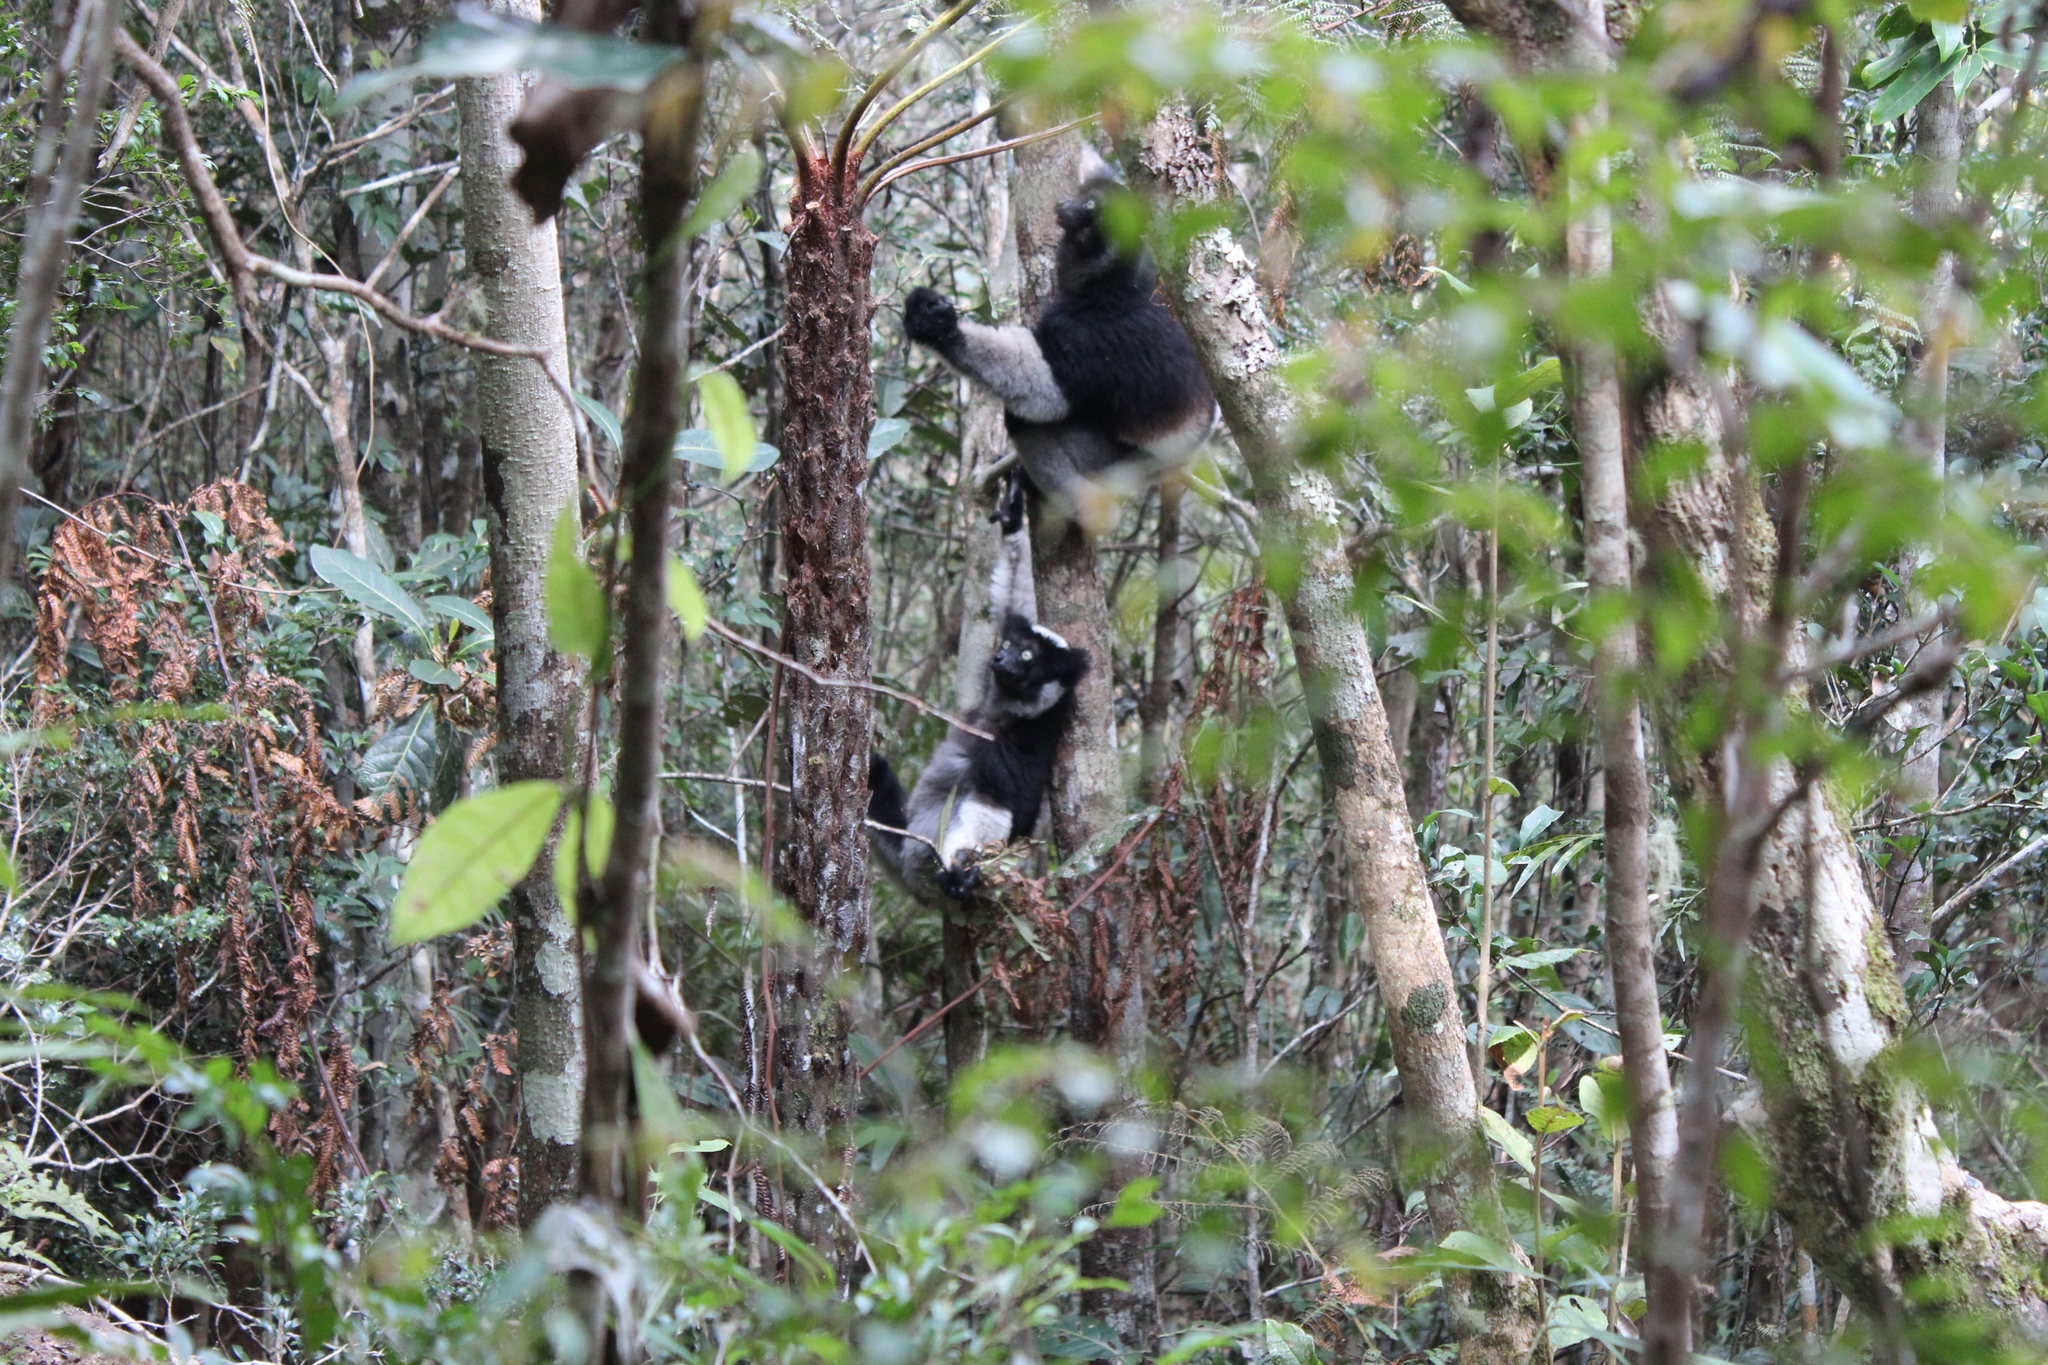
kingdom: Animalia
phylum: Chordata
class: Mammalia
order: Primates
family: Indriidae
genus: Indri
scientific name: Indri indri
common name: Indri
